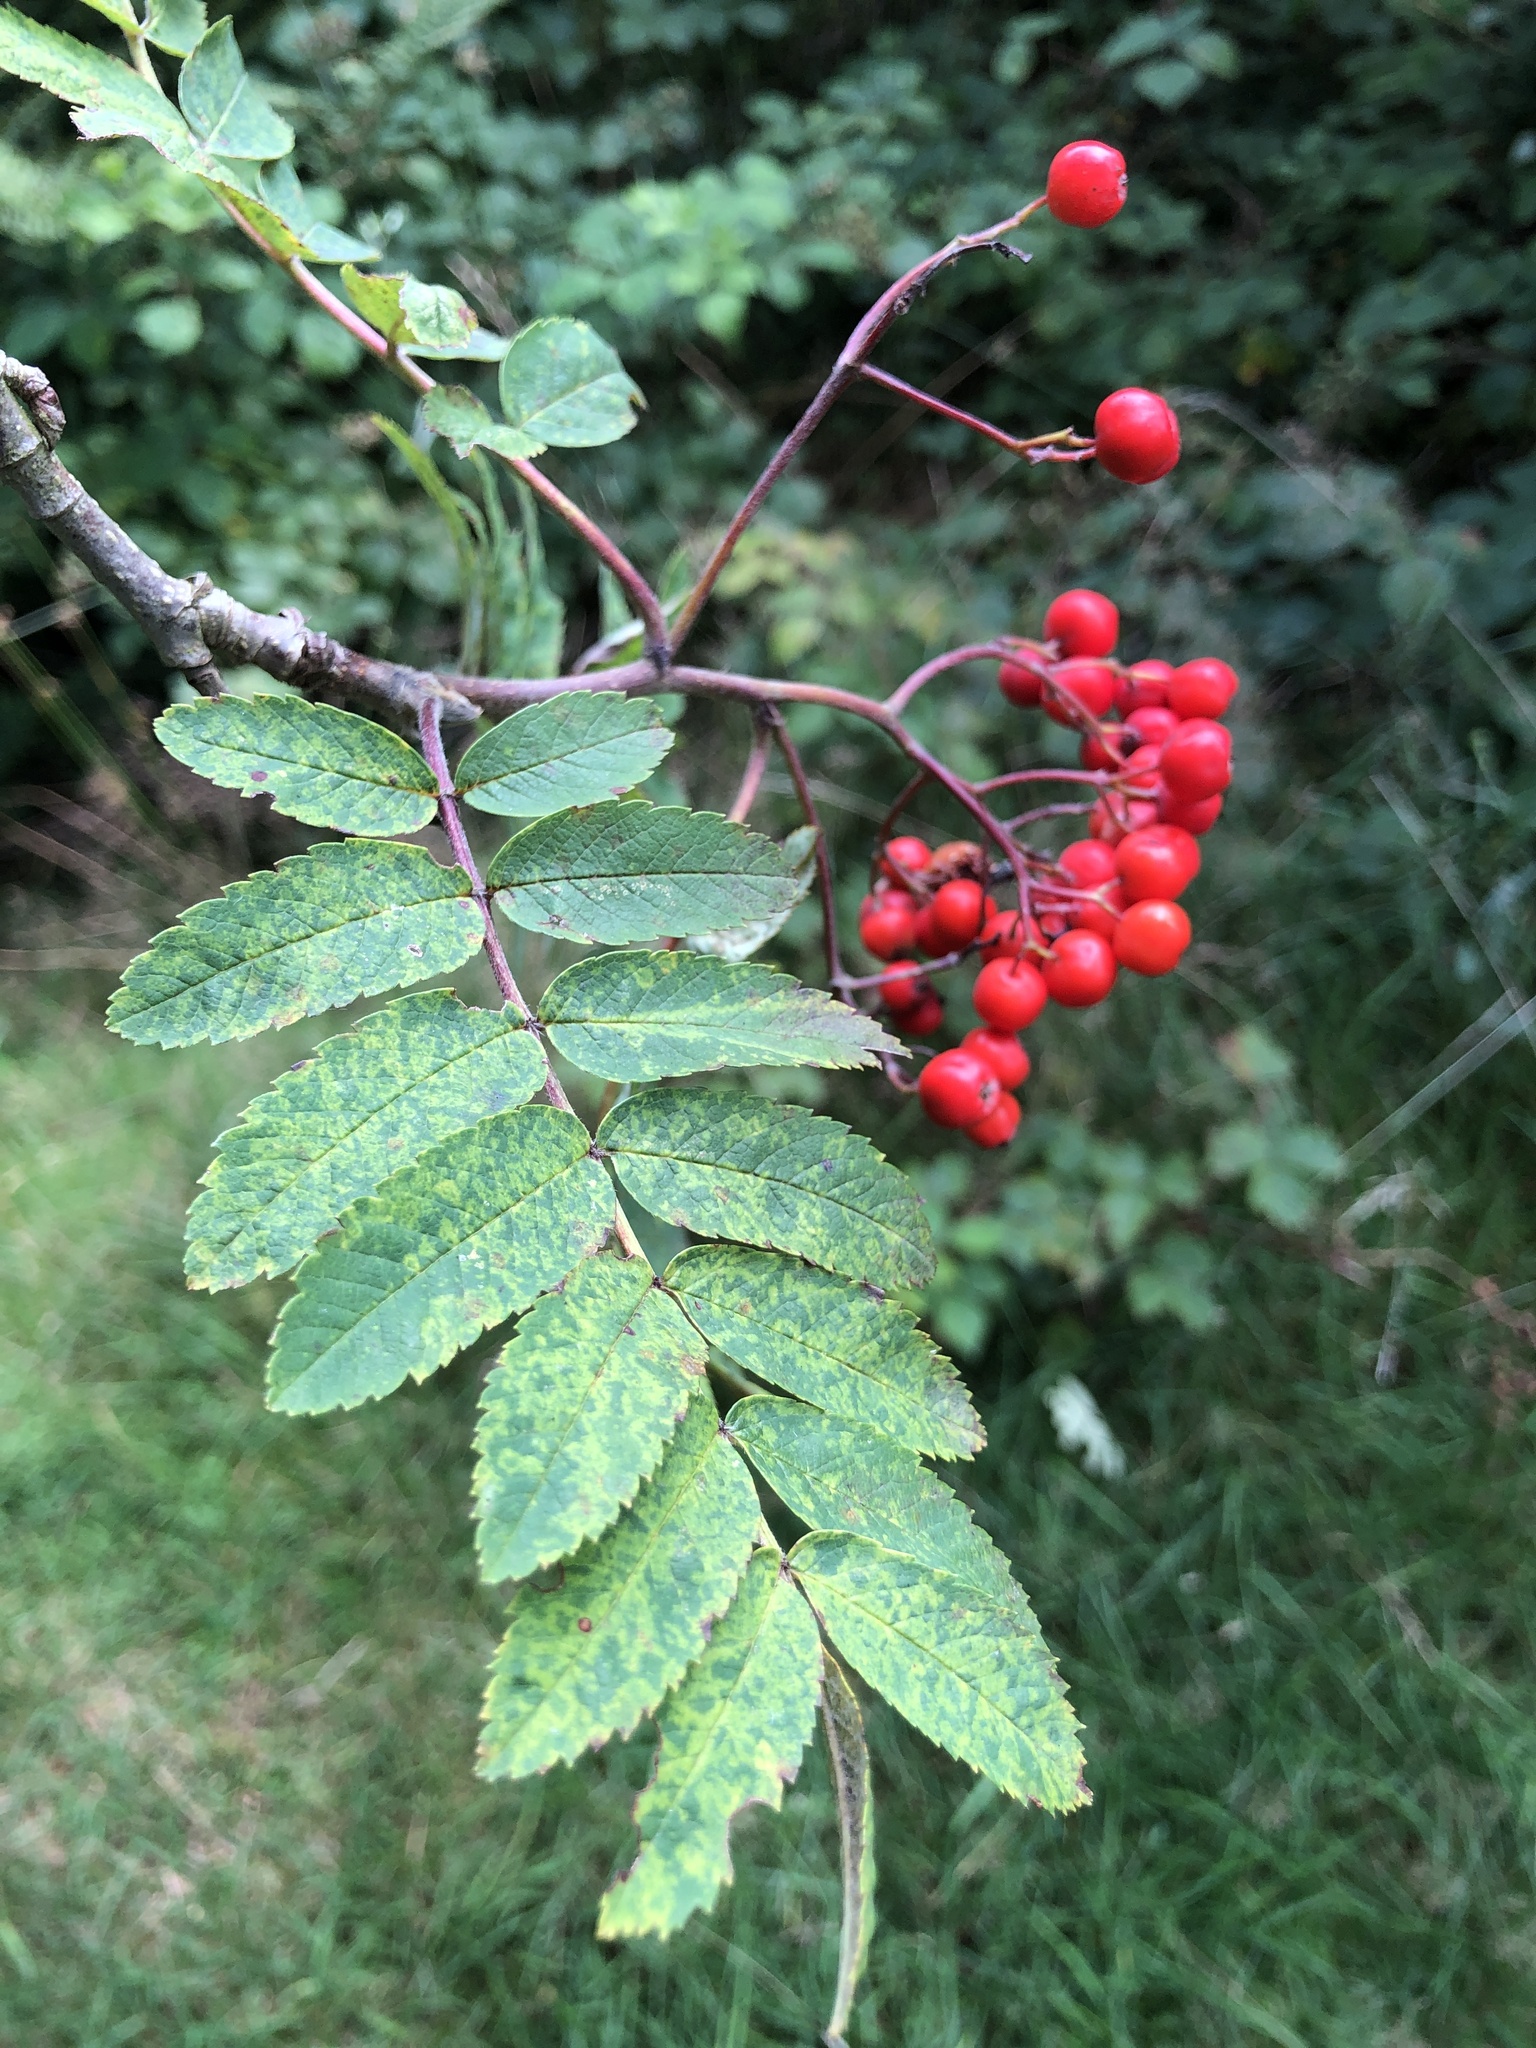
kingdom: Plantae
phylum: Tracheophyta
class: Magnoliopsida
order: Rosales
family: Rosaceae
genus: Sorbus
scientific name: Sorbus aucuparia
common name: Rowan
